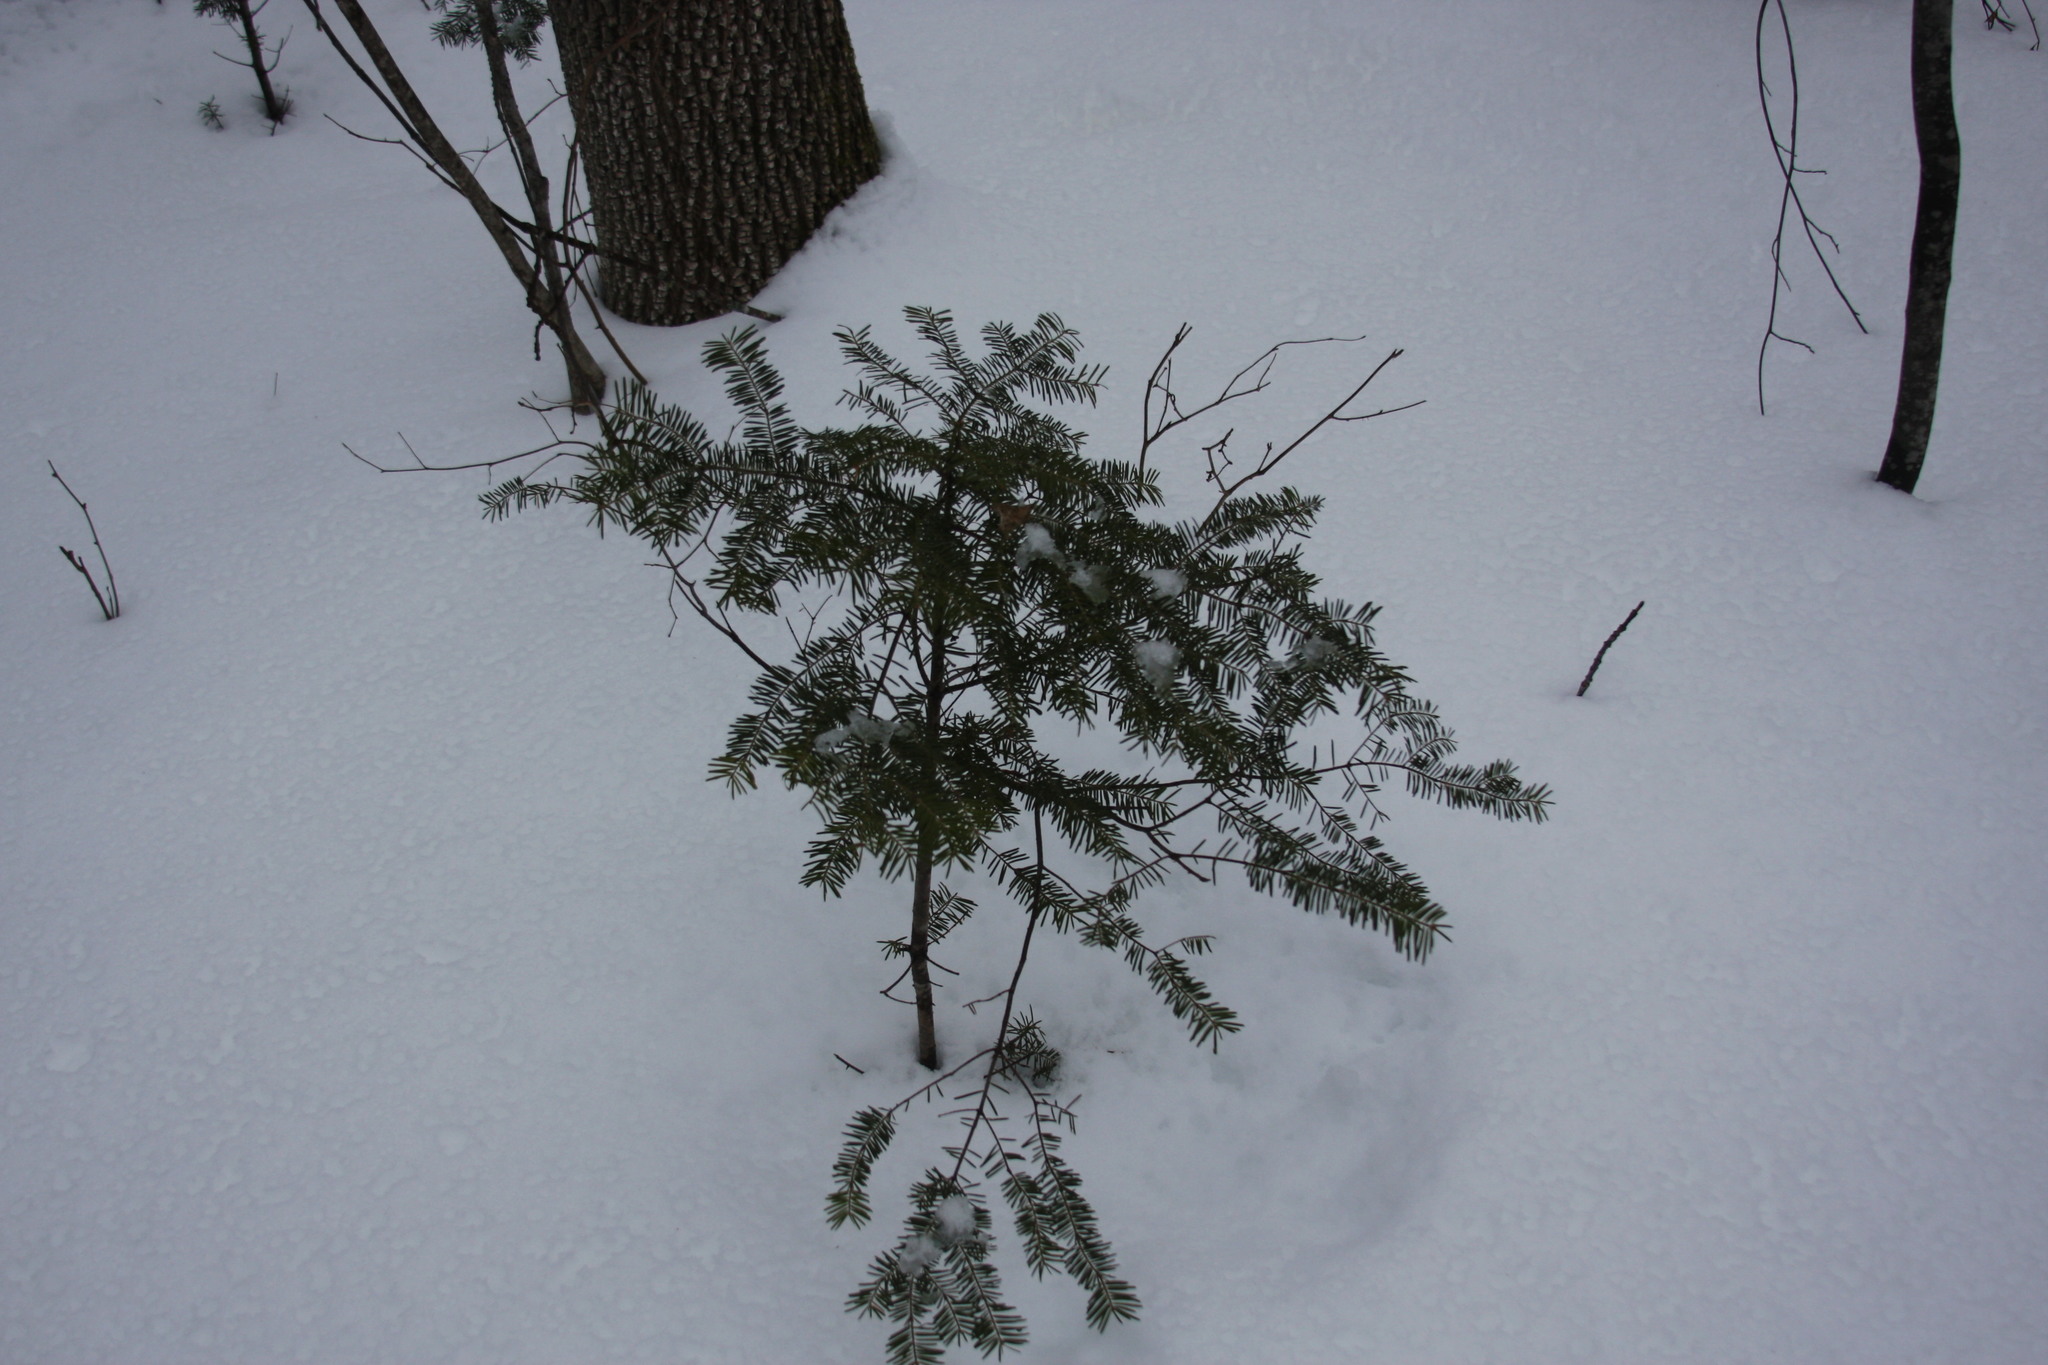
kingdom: Plantae
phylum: Tracheophyta
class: Pinopsida
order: Pinales
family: Pinaceae
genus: Abies
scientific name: Abies balsamea
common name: Balsam fir
